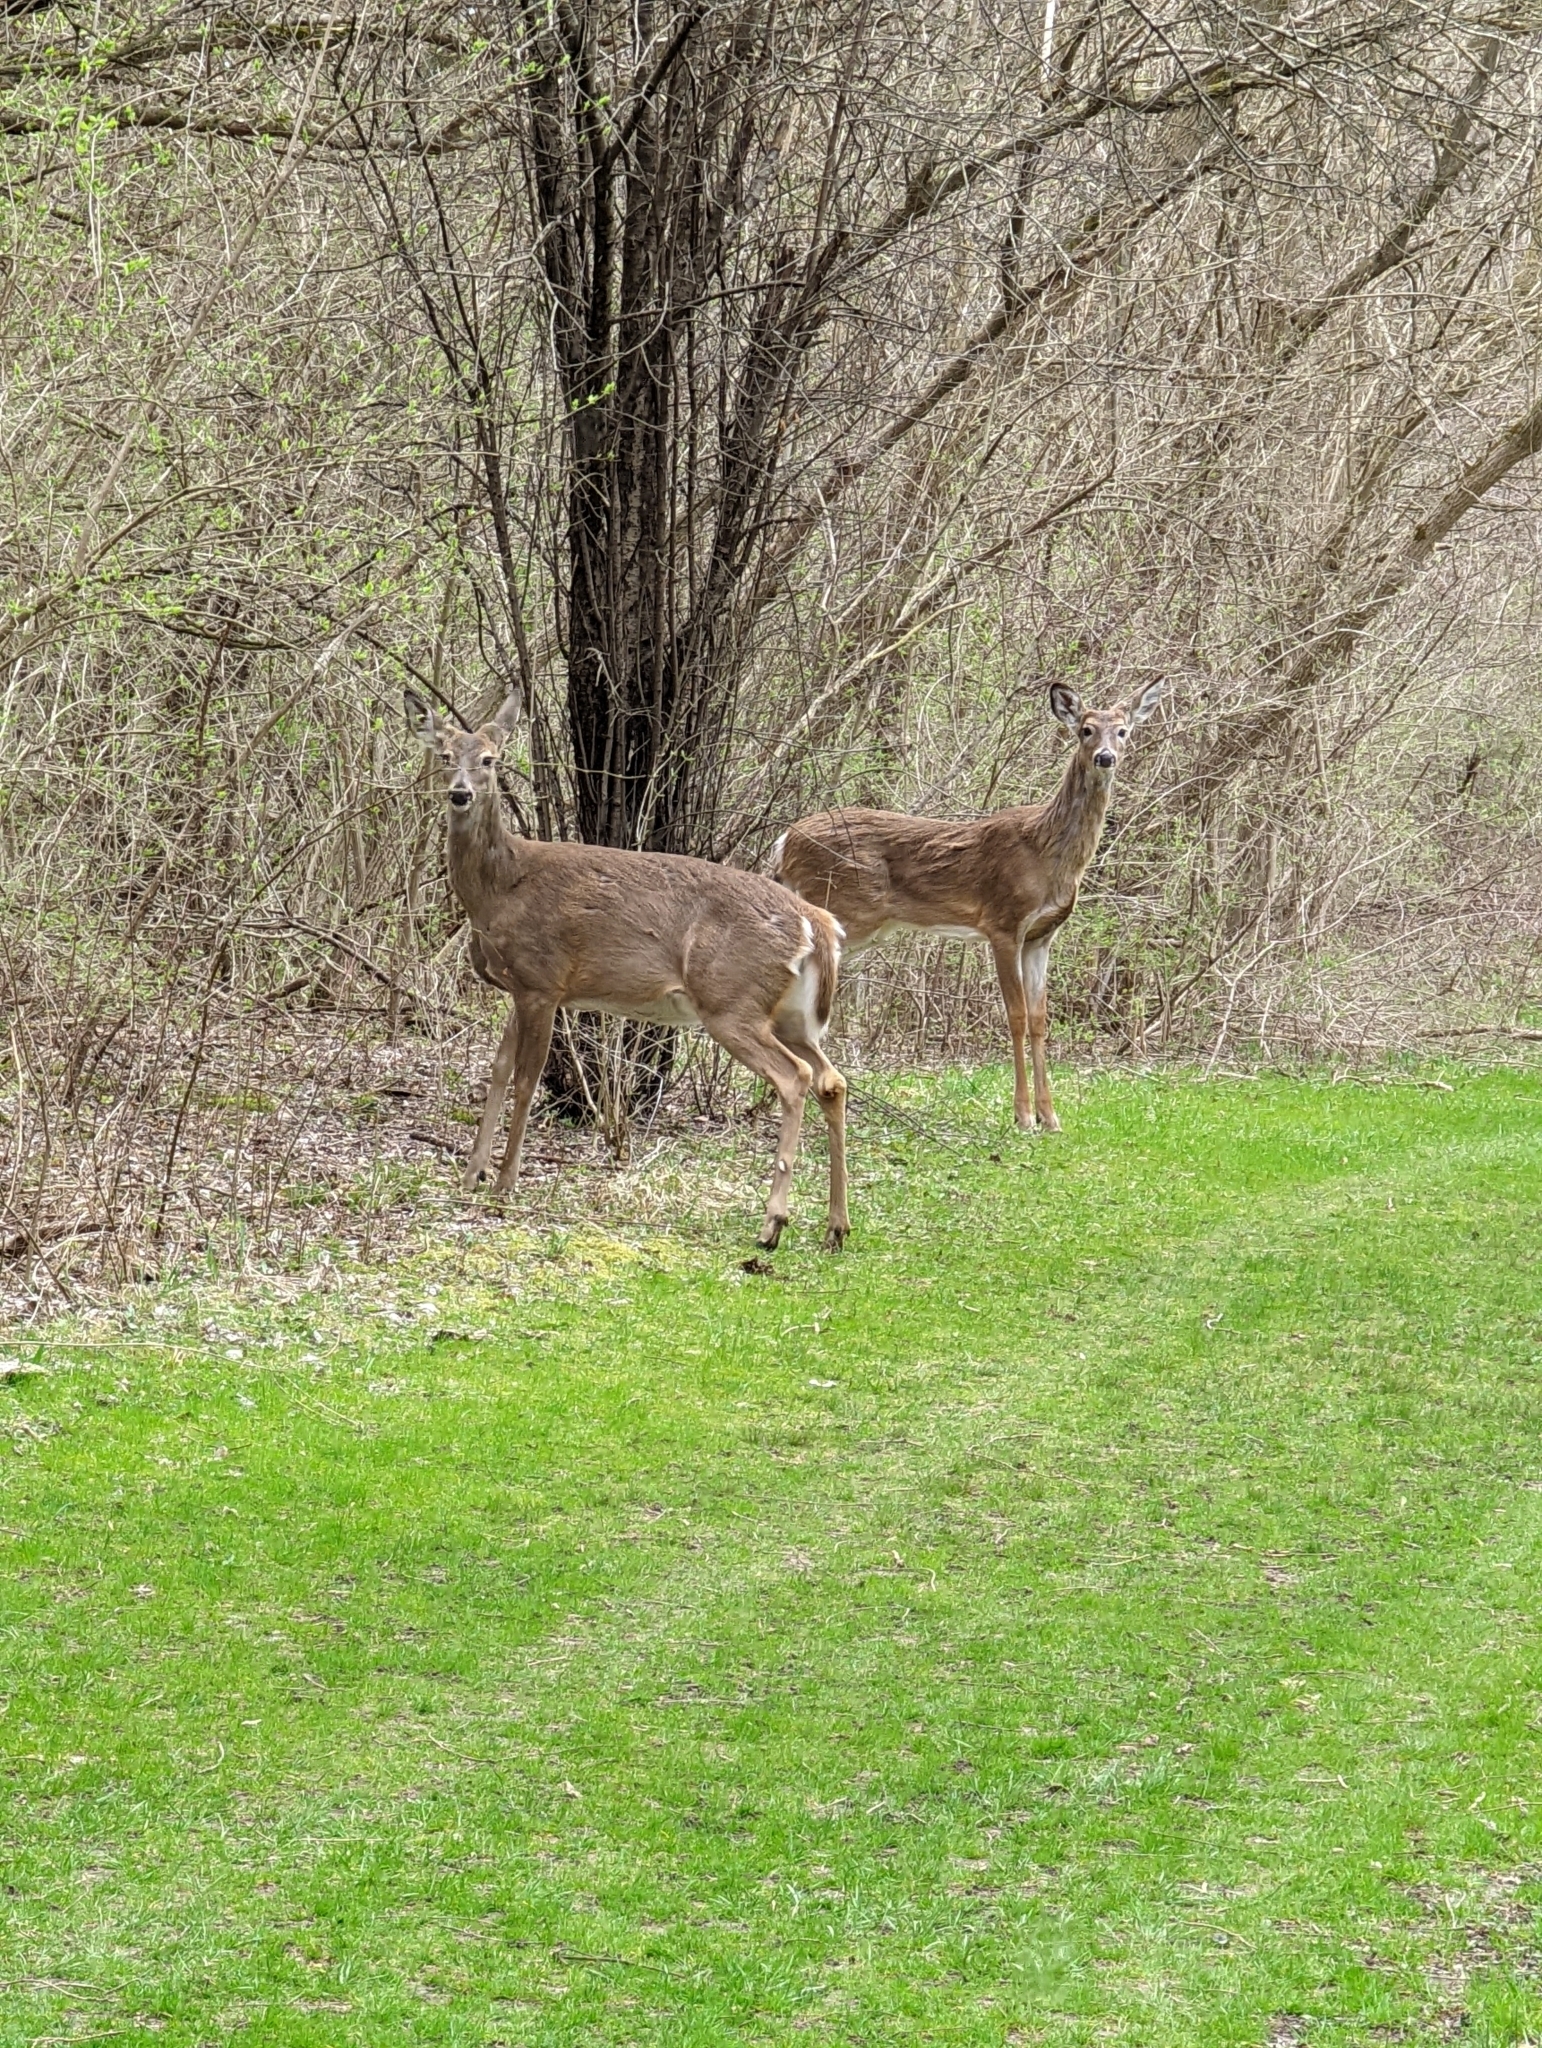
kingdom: Animalia
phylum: Chordata
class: Mammalia
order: Artiodactyla
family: Cervidae
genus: Odocoileus
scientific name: Odocoileus virginianus
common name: White-tailed deer
